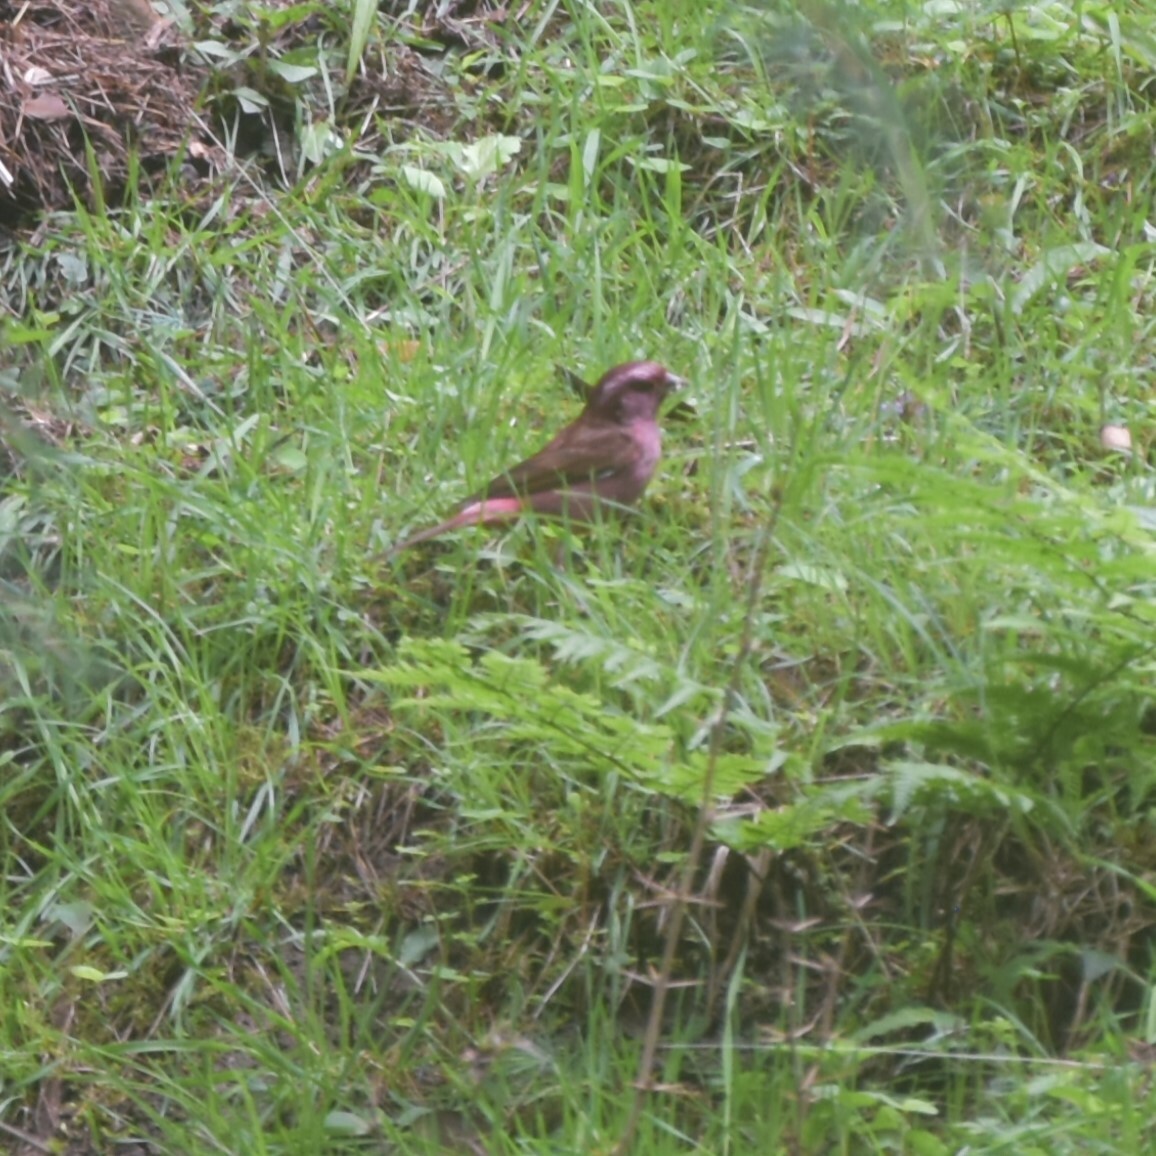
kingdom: Animalia
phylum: Chordata
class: Aves
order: Passeriformes
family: Fringillidae
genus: Carpodacus
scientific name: Carpodacus rodochroa
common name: Pink-browed rosefinch
